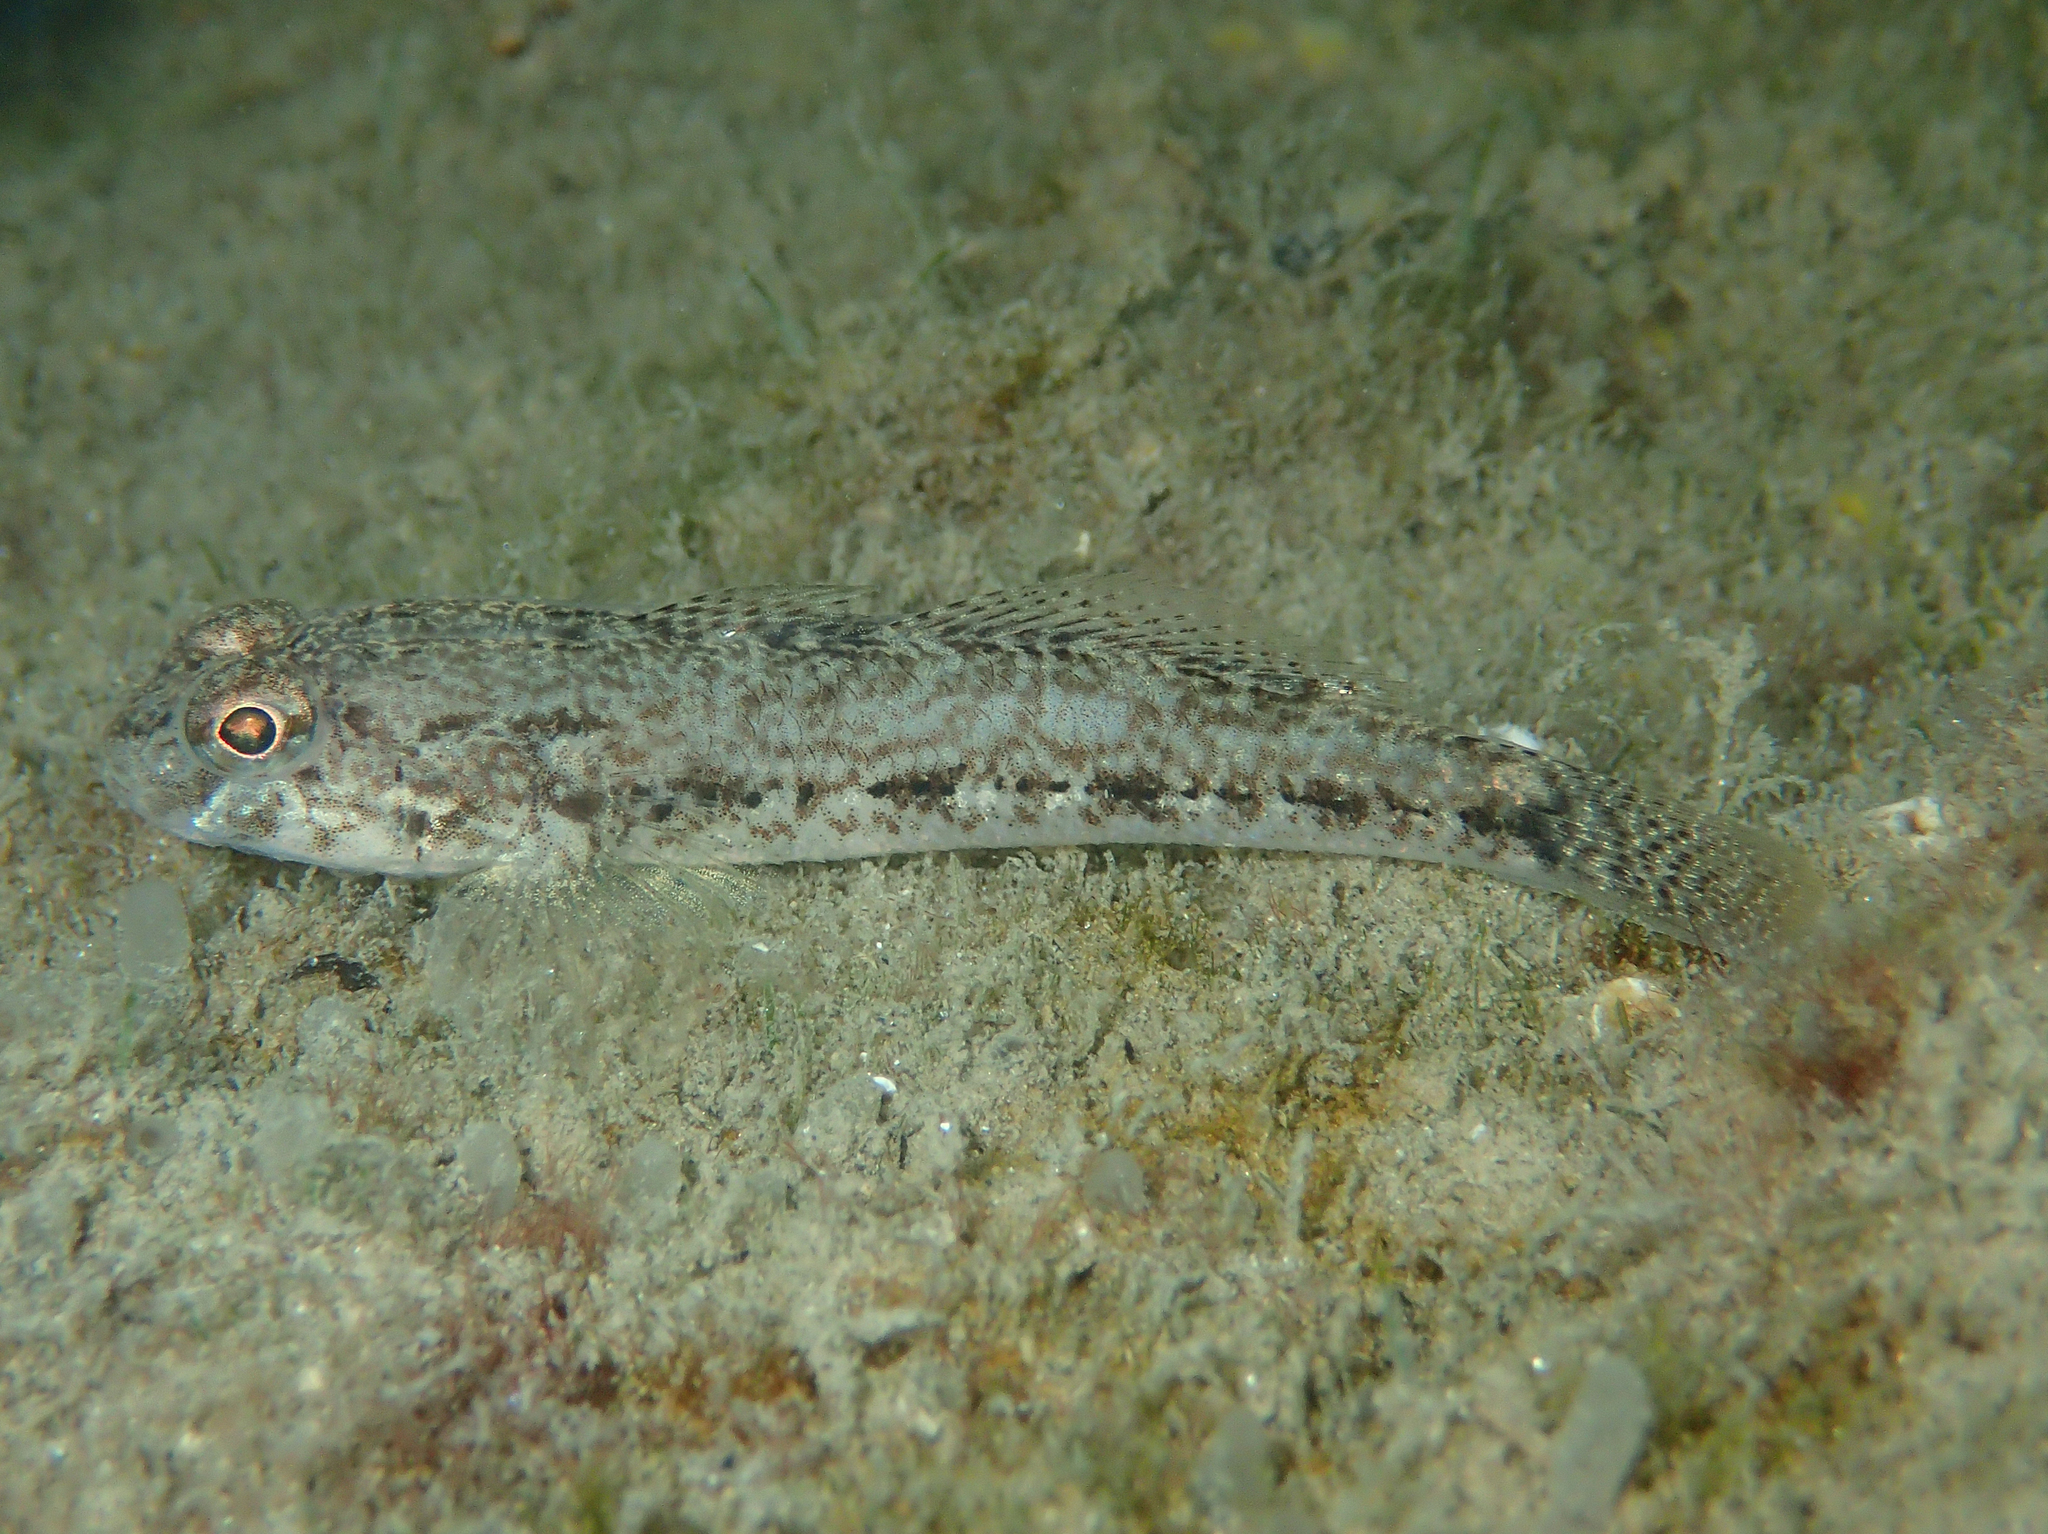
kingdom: Animalia
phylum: Chordata
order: Perciformes
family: Gobiidae
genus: Gobius
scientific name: Gobius niger
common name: Black goby
